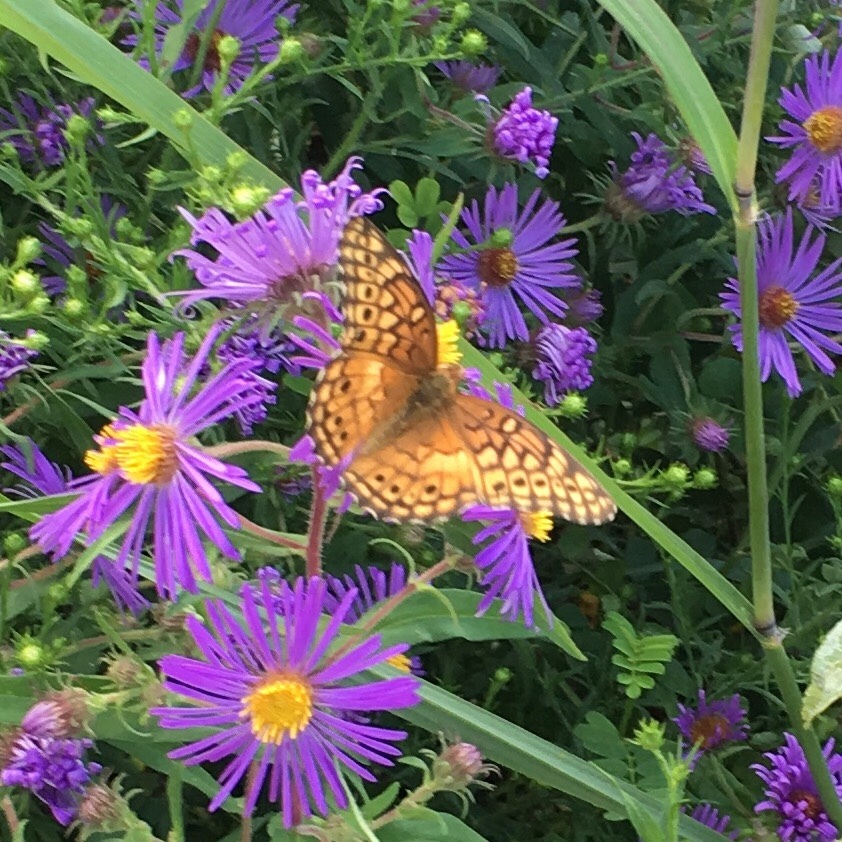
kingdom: Animalia
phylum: Arthropoda
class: Insecta
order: Lepidoptera
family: Nymphalidae
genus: Euptoieta
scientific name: Euptoieta claudia
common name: Variegated fritillary
